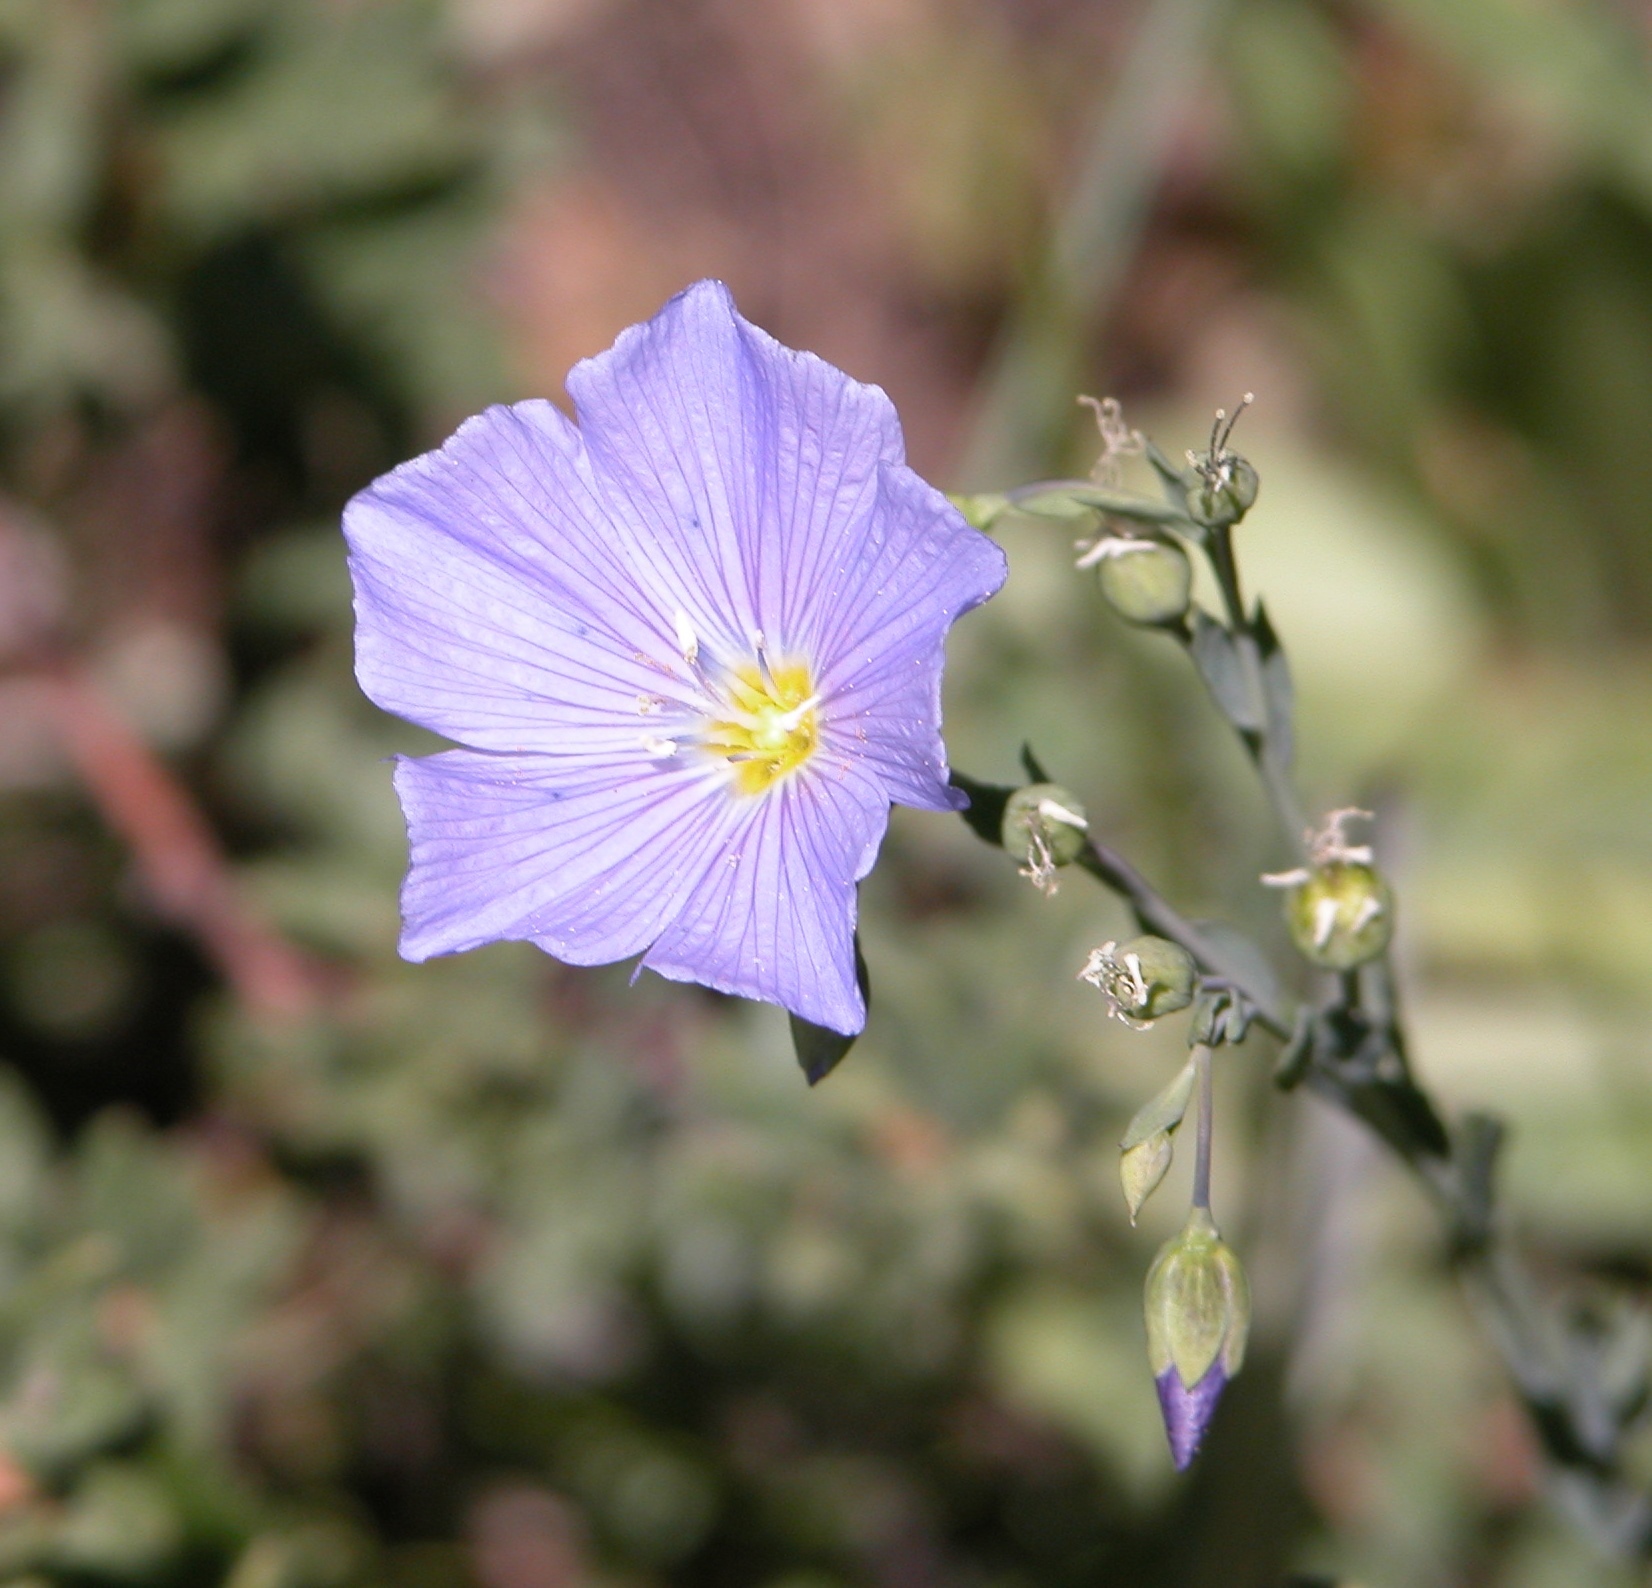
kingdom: Plantae
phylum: Tracheophyta
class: Magnoliopsida
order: Malpighiales
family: Linaceae
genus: Linum
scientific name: Linum lewisii
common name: Prairie flax
